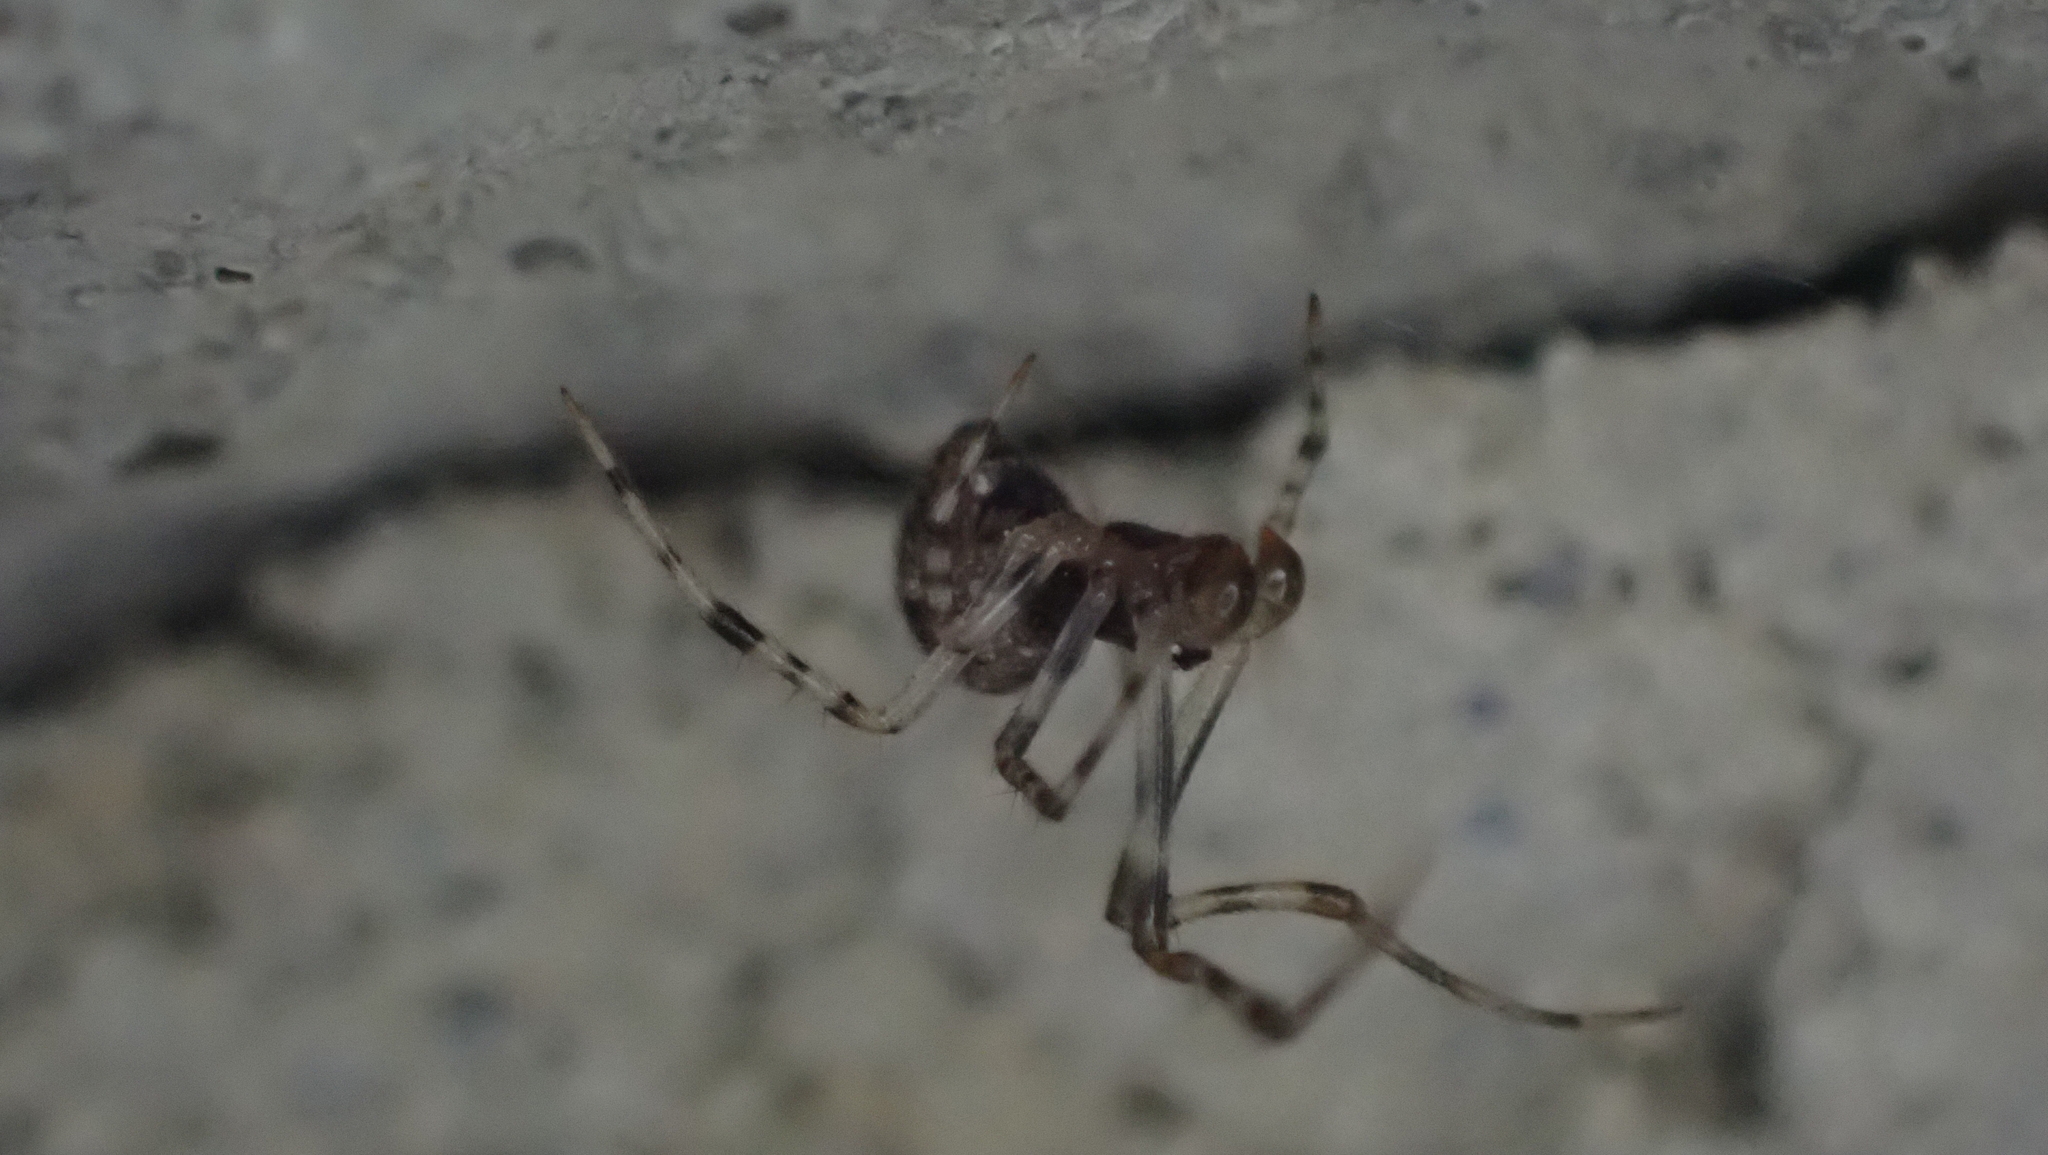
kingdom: Animalia
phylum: Arthropoda
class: Arachnida
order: Araneae
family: Theridiidae
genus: Parasteatoda
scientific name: Parasteatoda tepidariorum
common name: Common house spider
